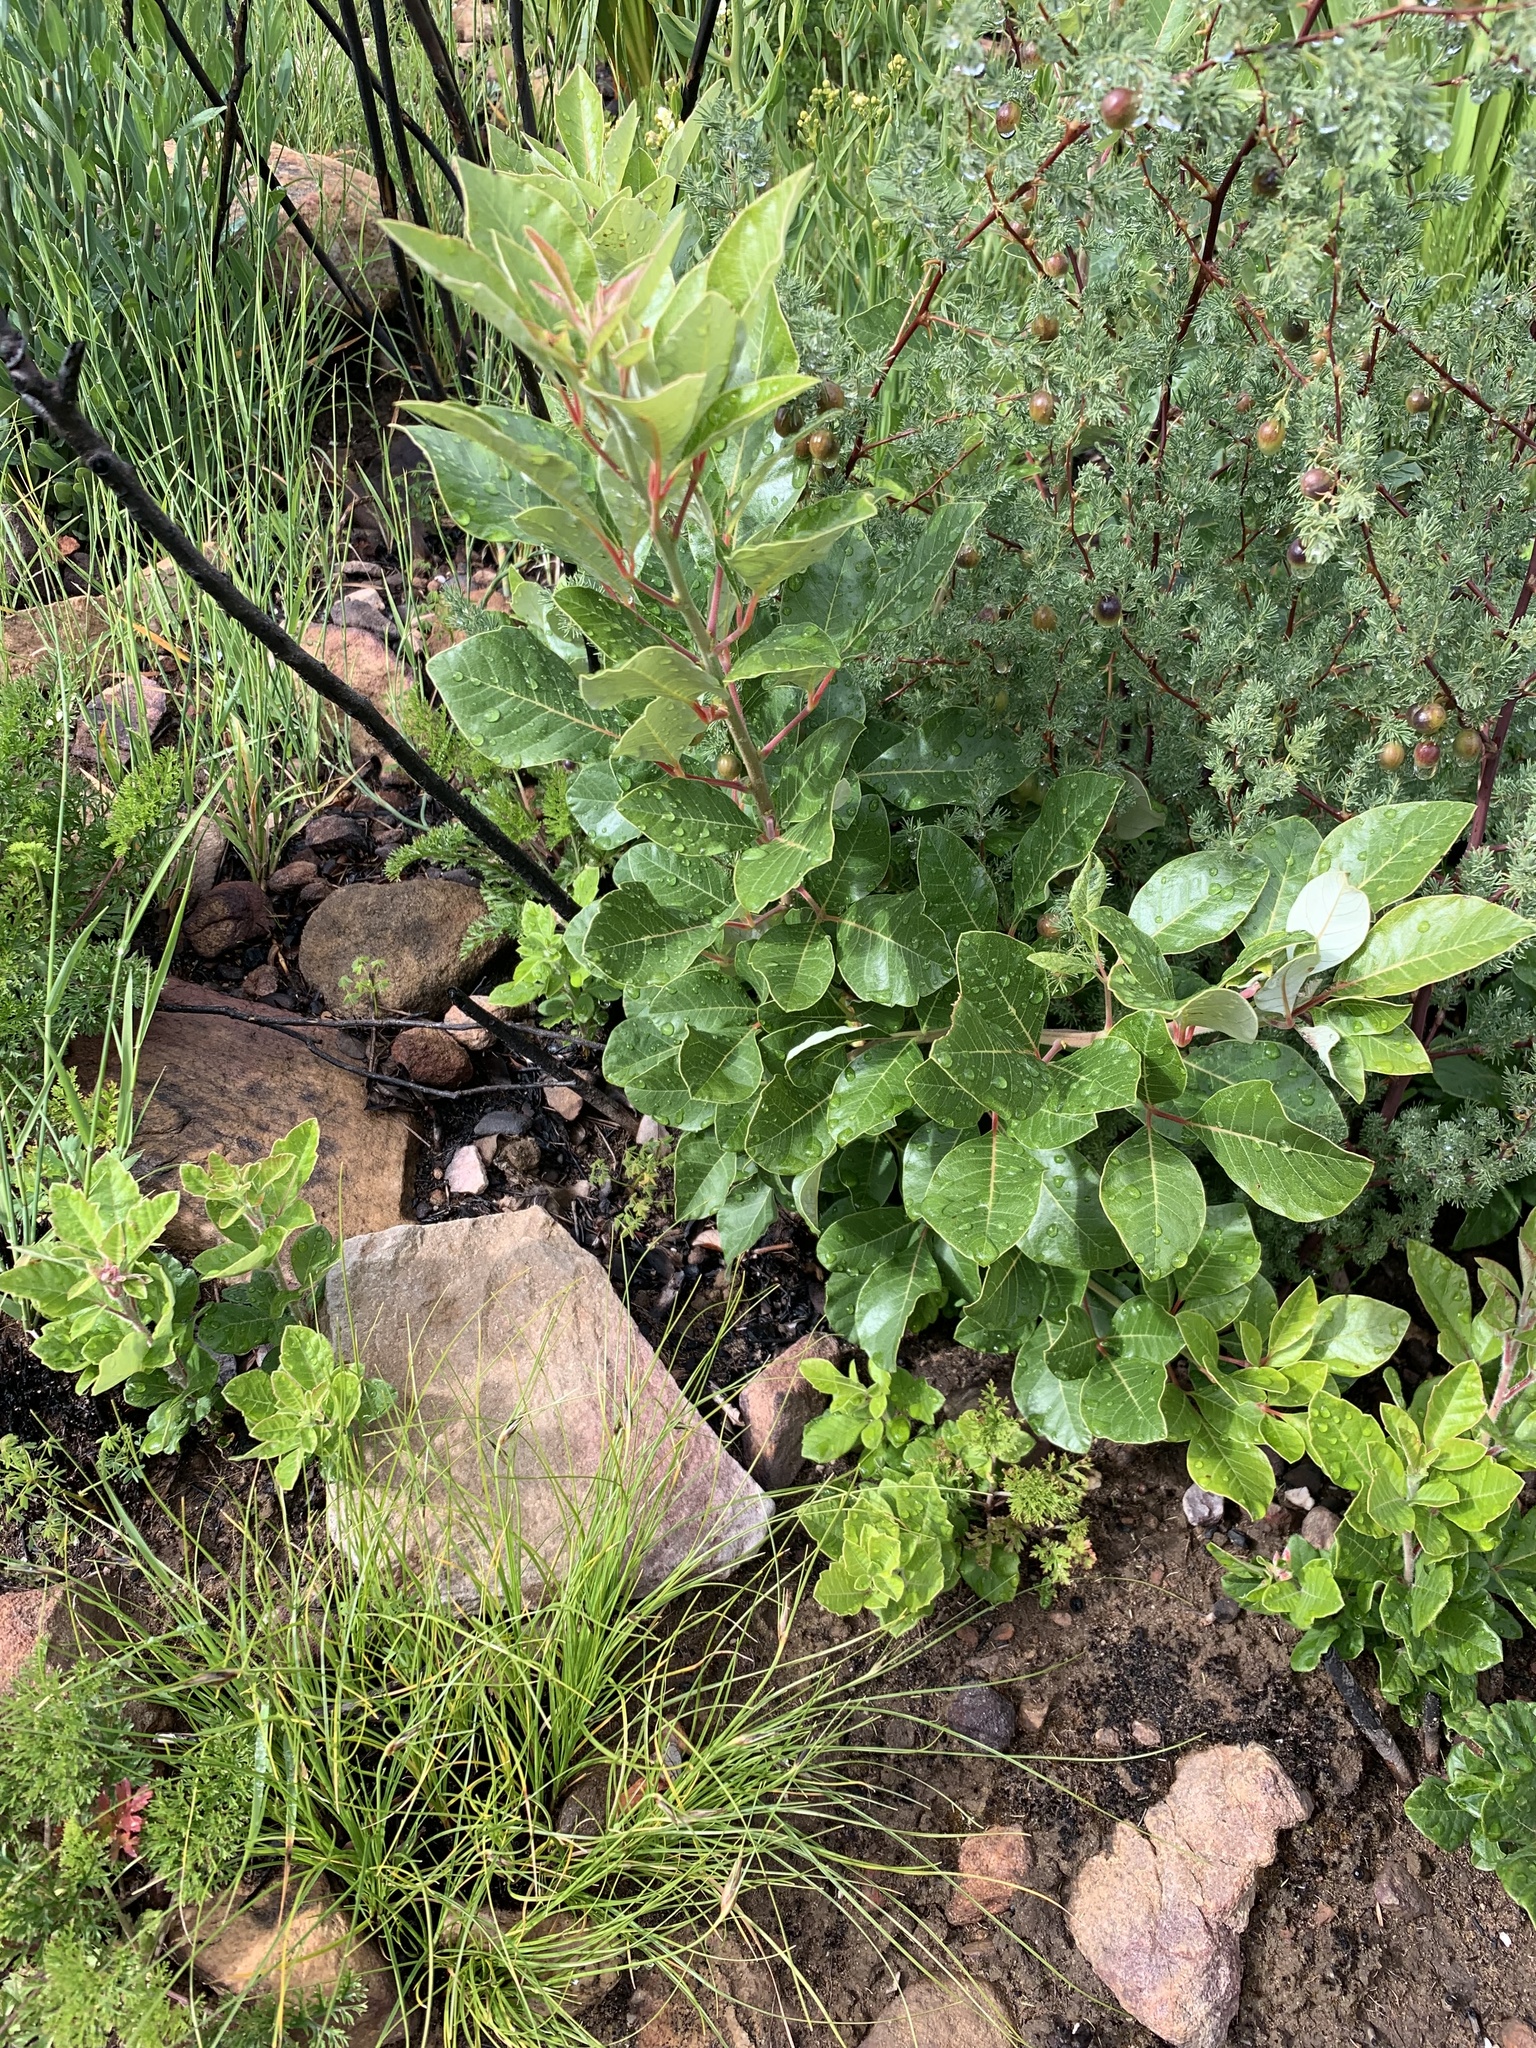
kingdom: Plantae
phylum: Tracheophyta
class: Magnoliopsida
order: Sapindales
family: Anacardiaceae
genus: Searsia
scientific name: Searsia tomentosa
